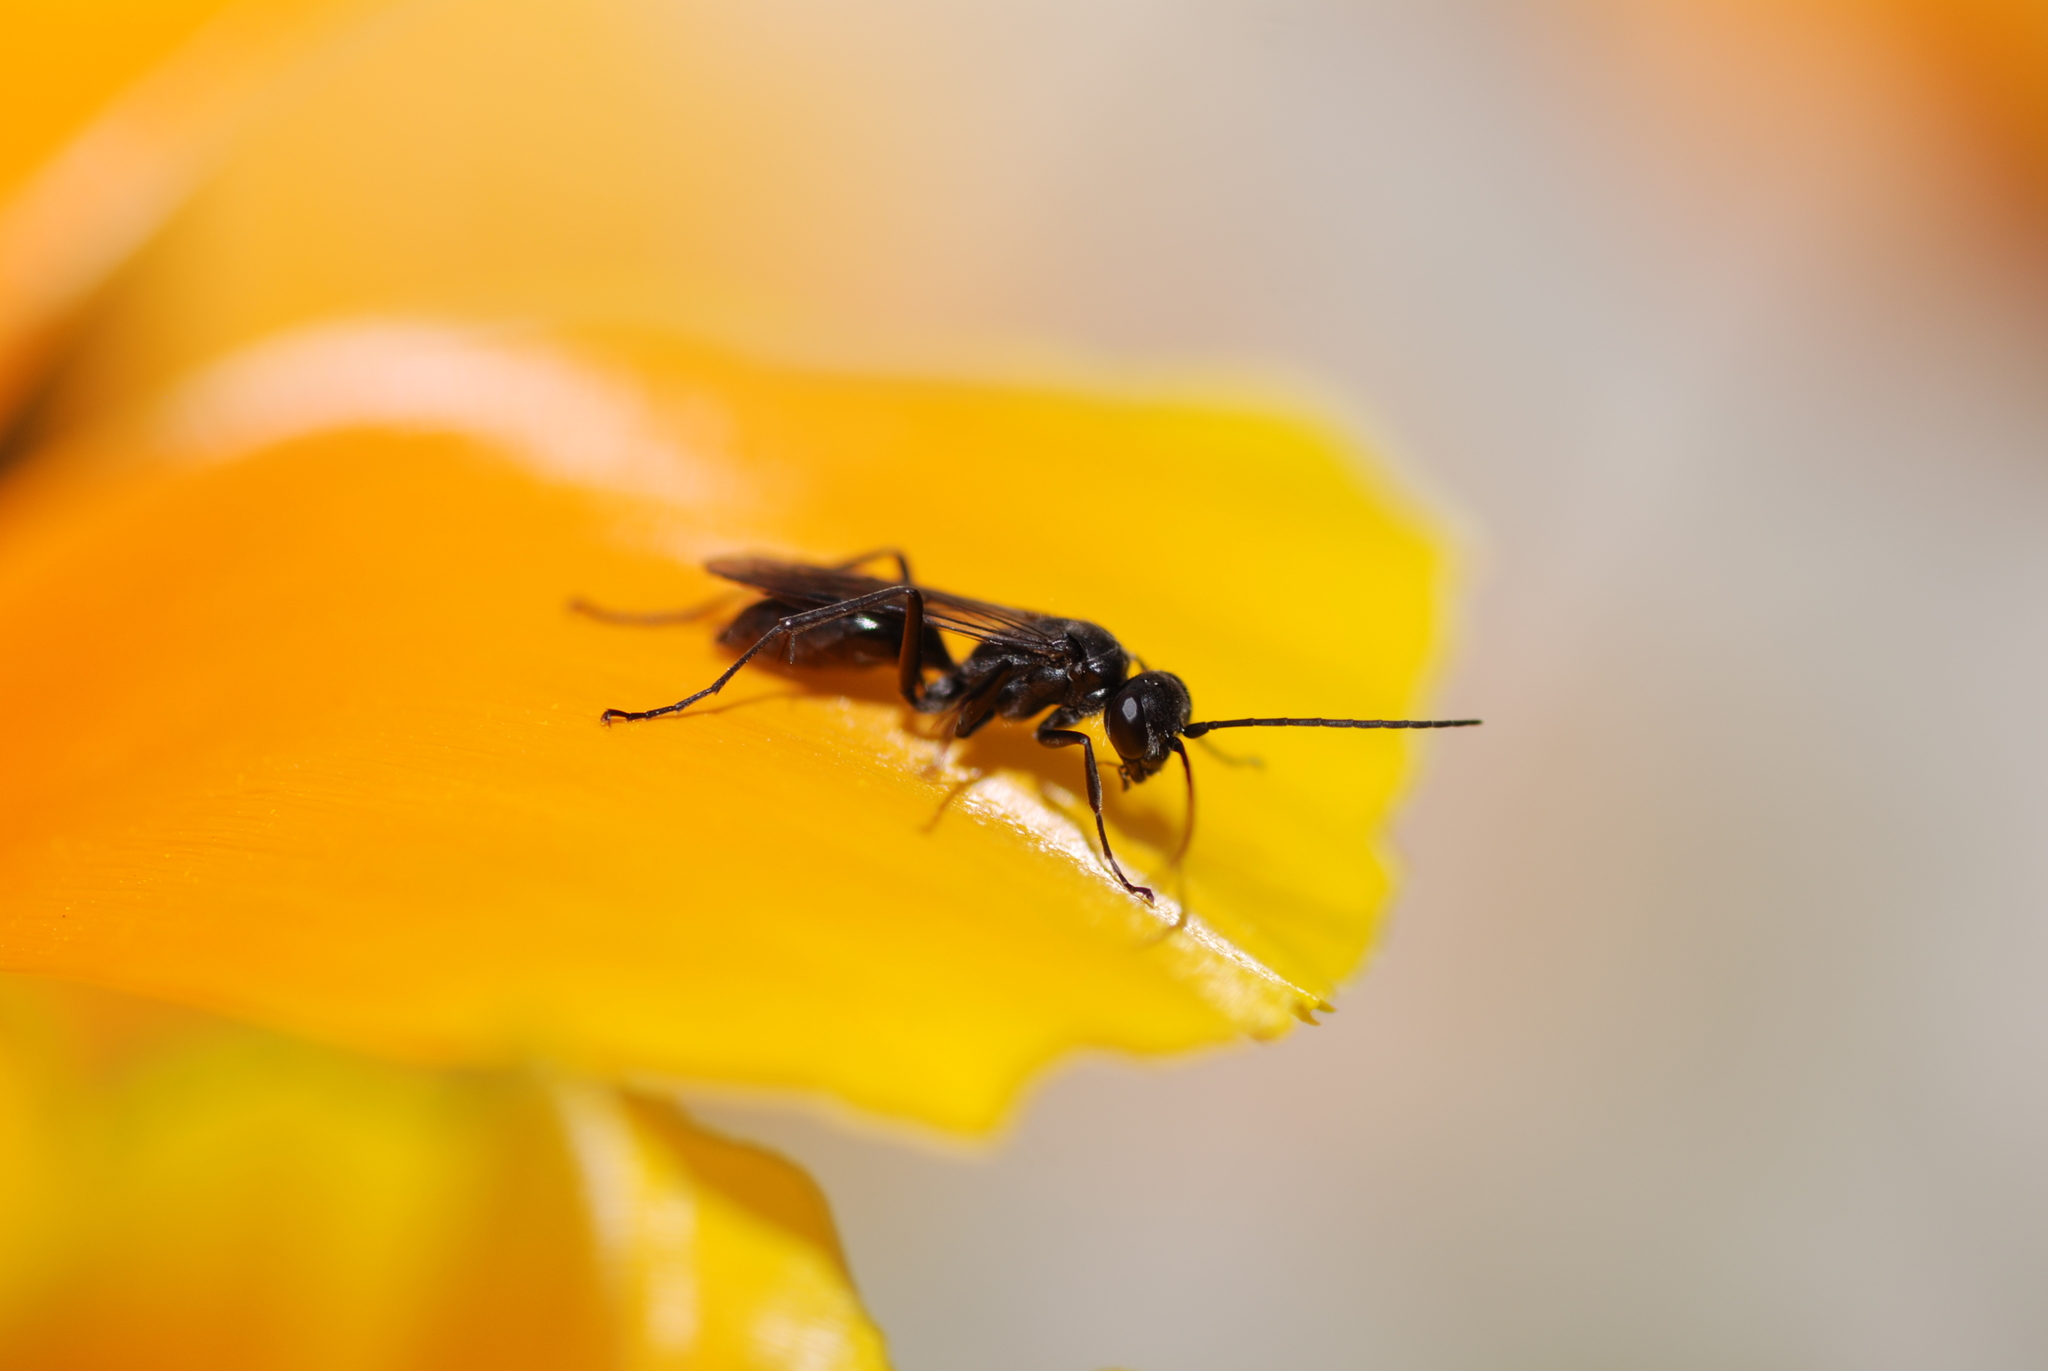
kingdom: Animalia
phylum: Arthropoda
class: Insecta
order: Hymenoptera
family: Crabronidae
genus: Pemphredon
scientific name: Pemphredon
